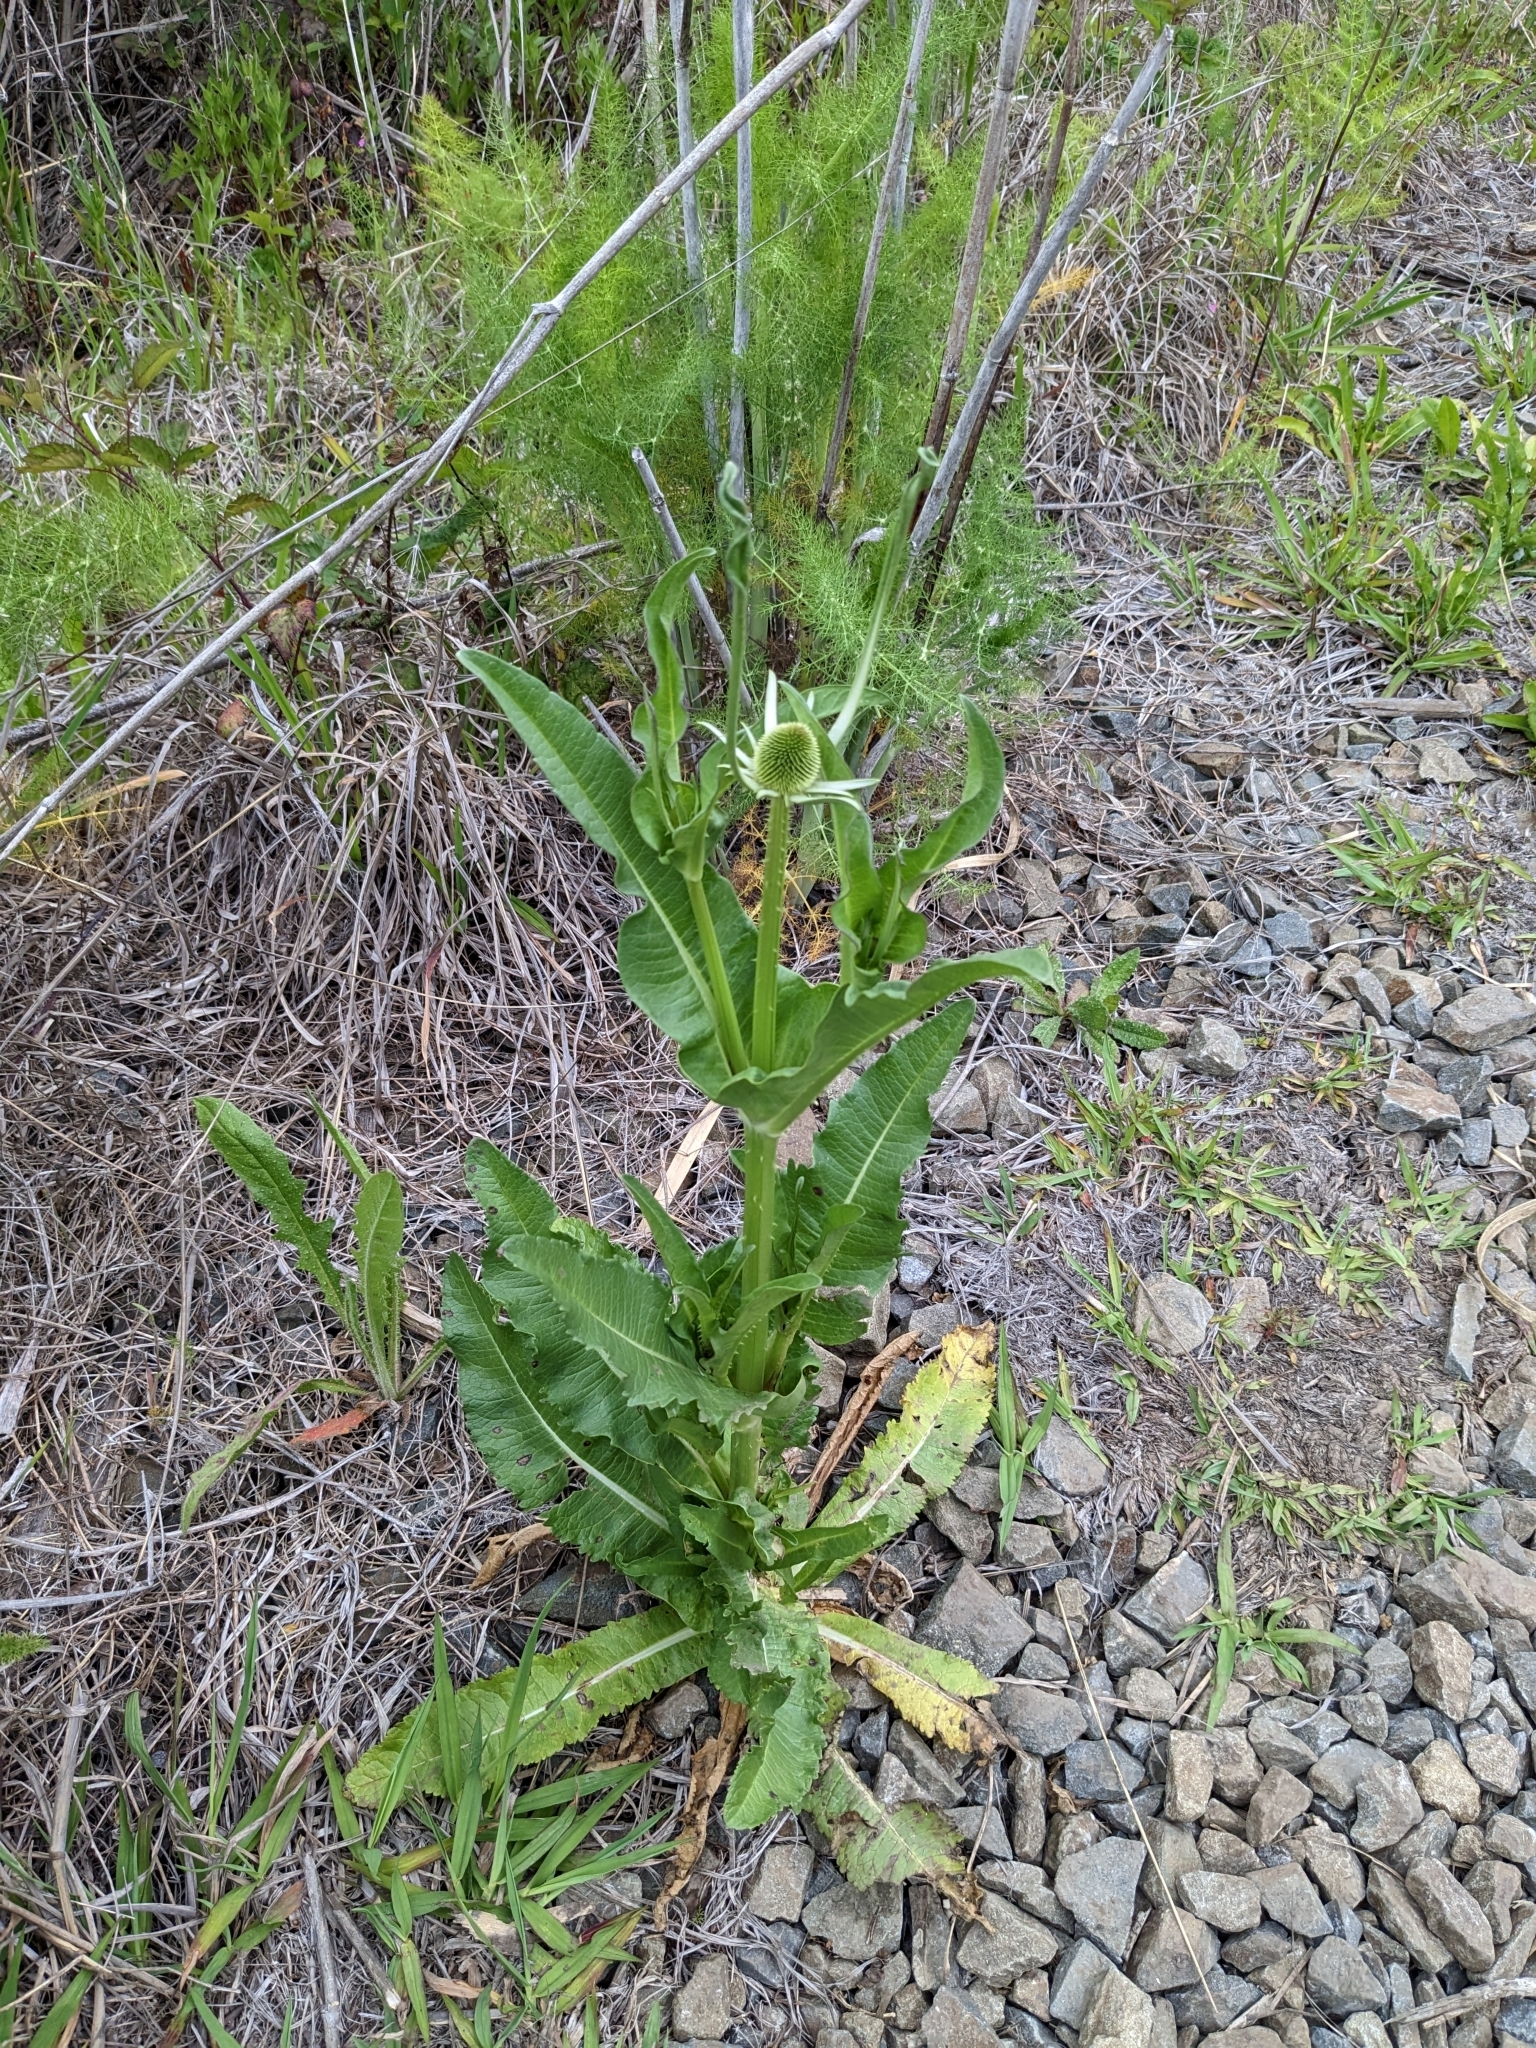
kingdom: Plantae
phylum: Tracheophyta
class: Magnoliopsida
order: Dipsacales
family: Caprifoliaceae
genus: Dipsacus
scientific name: Dipsacus sativus
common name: Fuller's teasel
